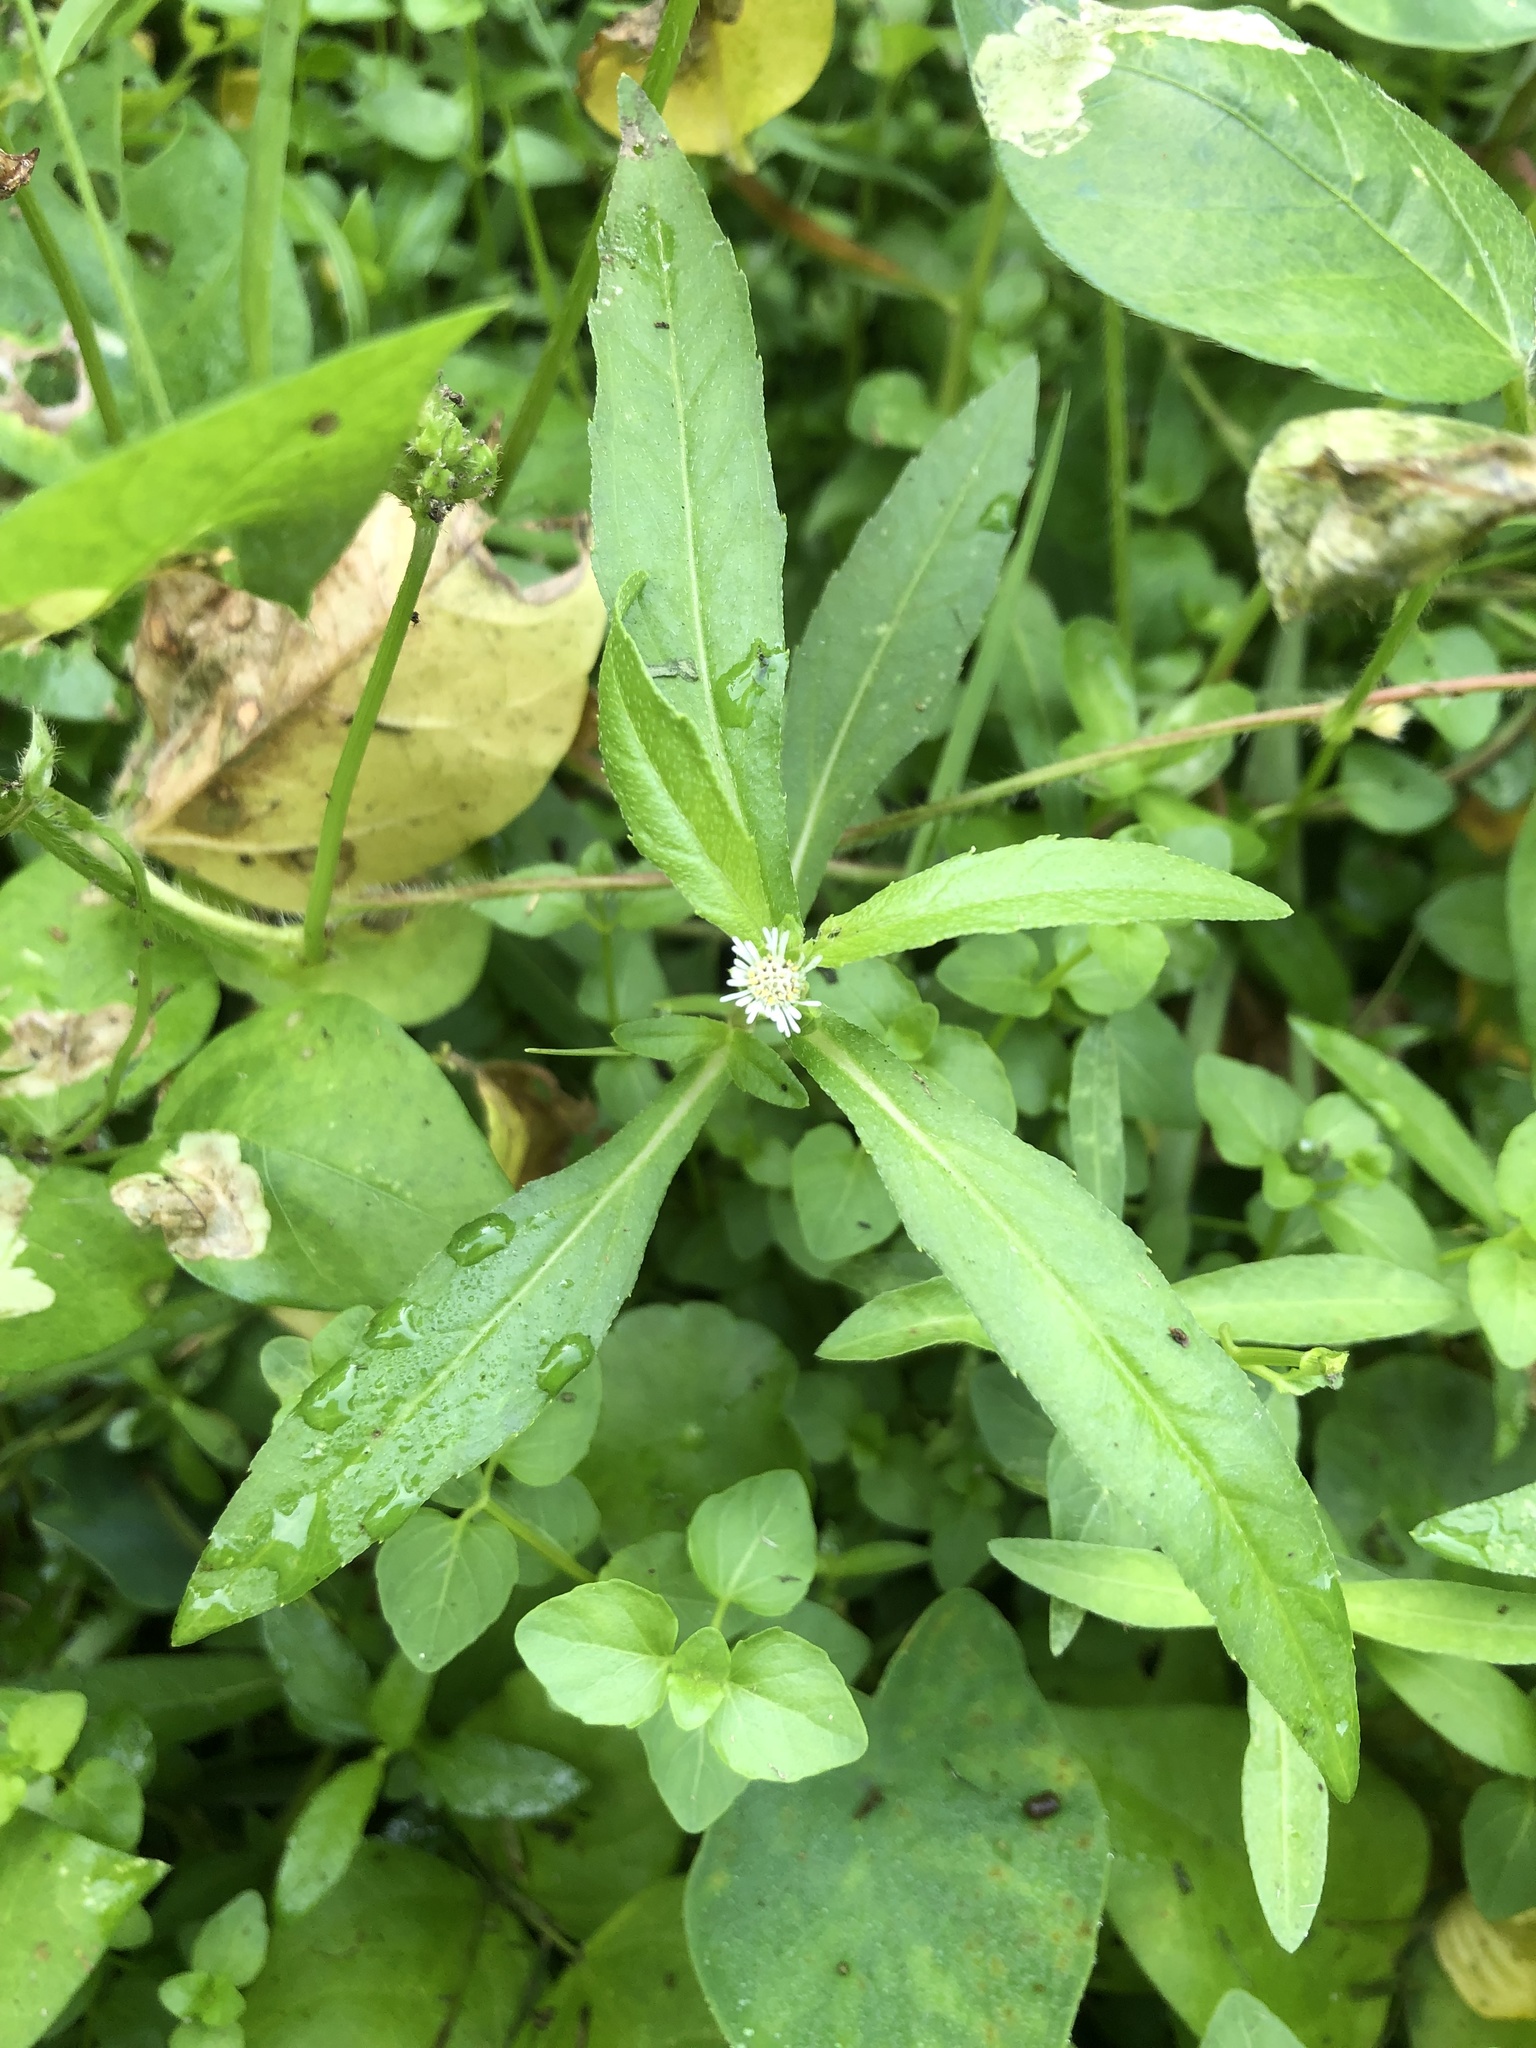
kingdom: Plantae
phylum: Tracheophyta
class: Magnoliopsida
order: Asterales
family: Asteraceae
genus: Eclipta
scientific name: Eclipta prostrata
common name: False daisy
